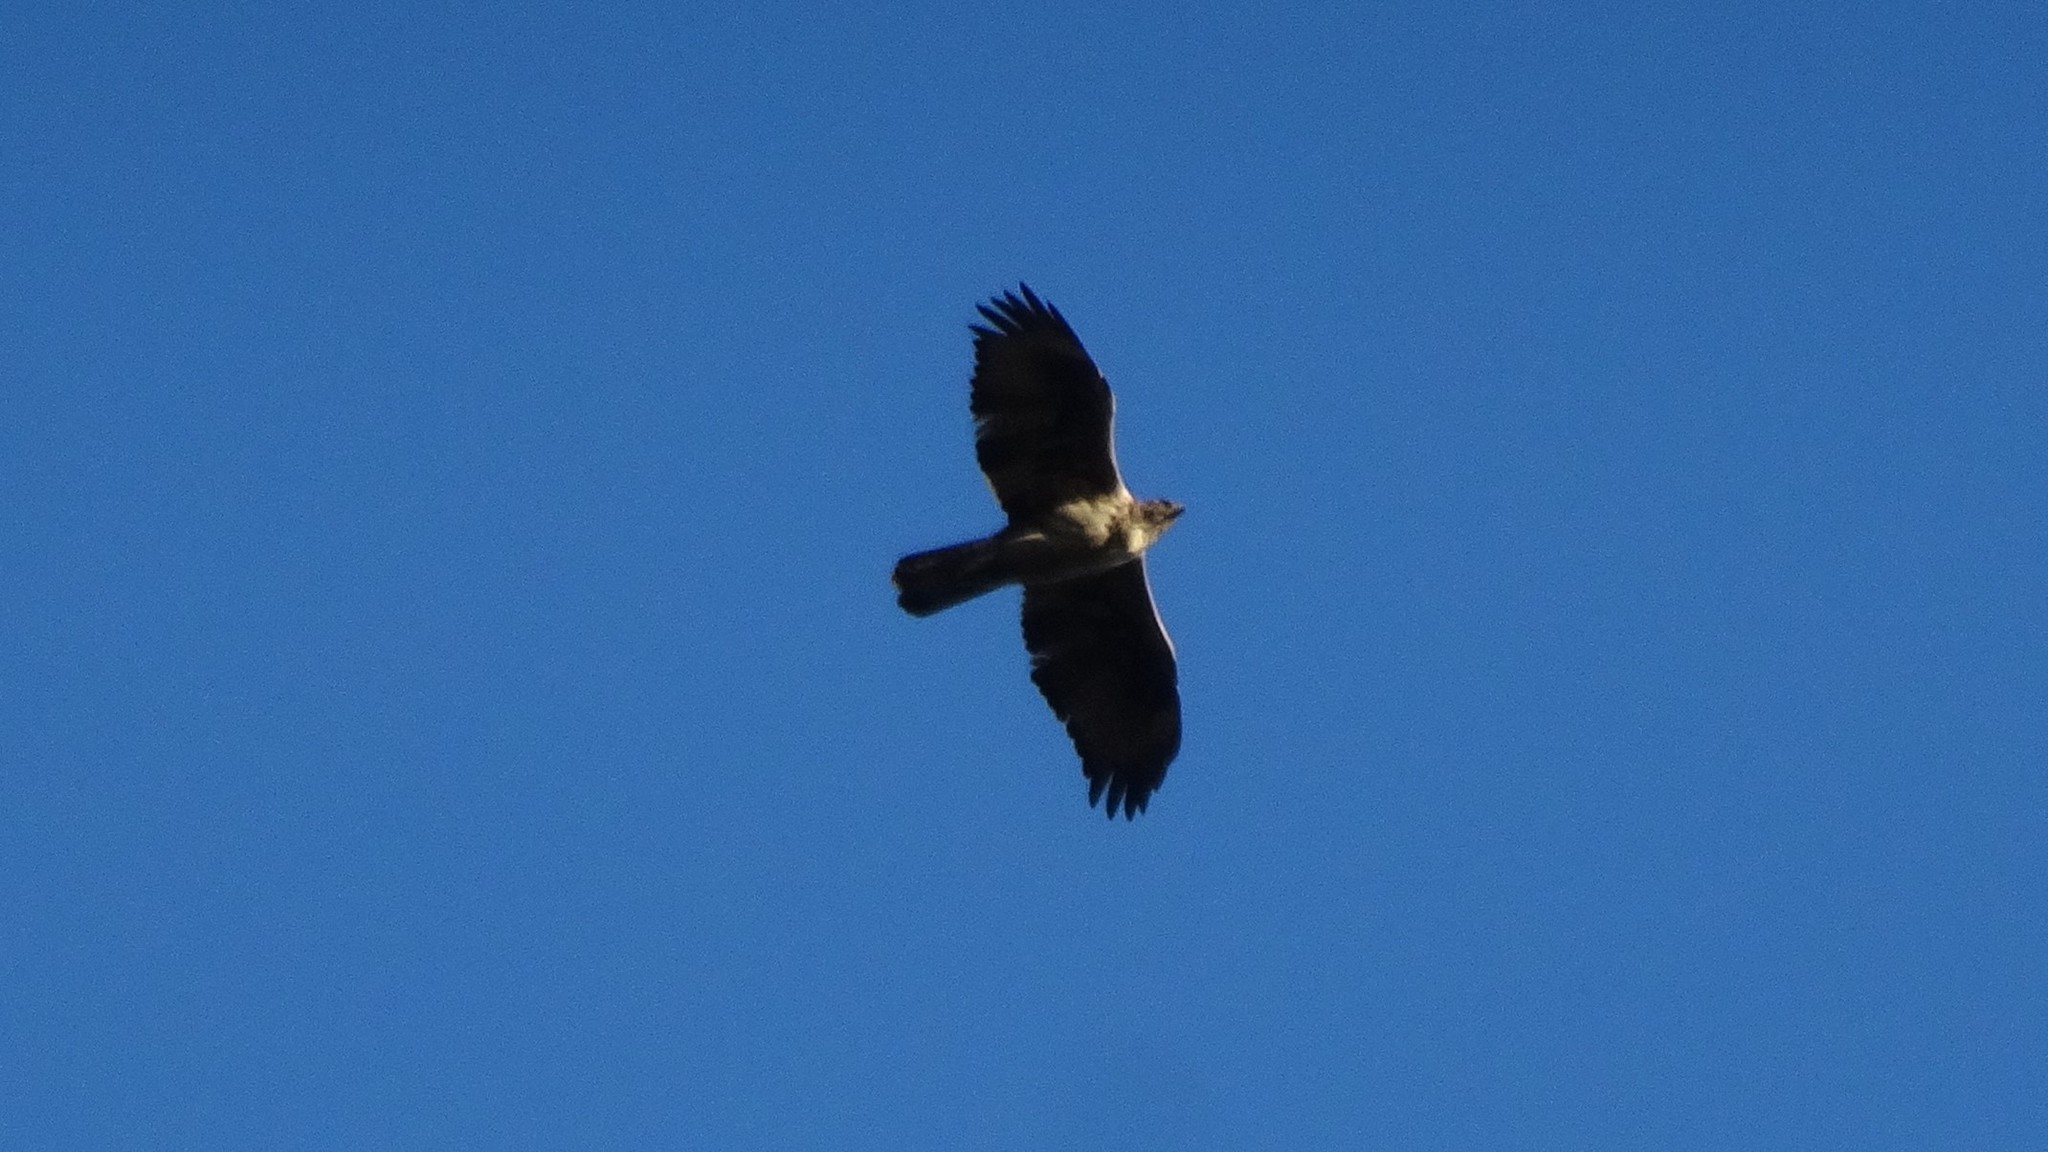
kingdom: Animalia
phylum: Chordata
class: Aves
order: Accipitriformes
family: Accipitridae
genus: Aquila
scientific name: Aquila fasciata
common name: Bonelli's eagle
